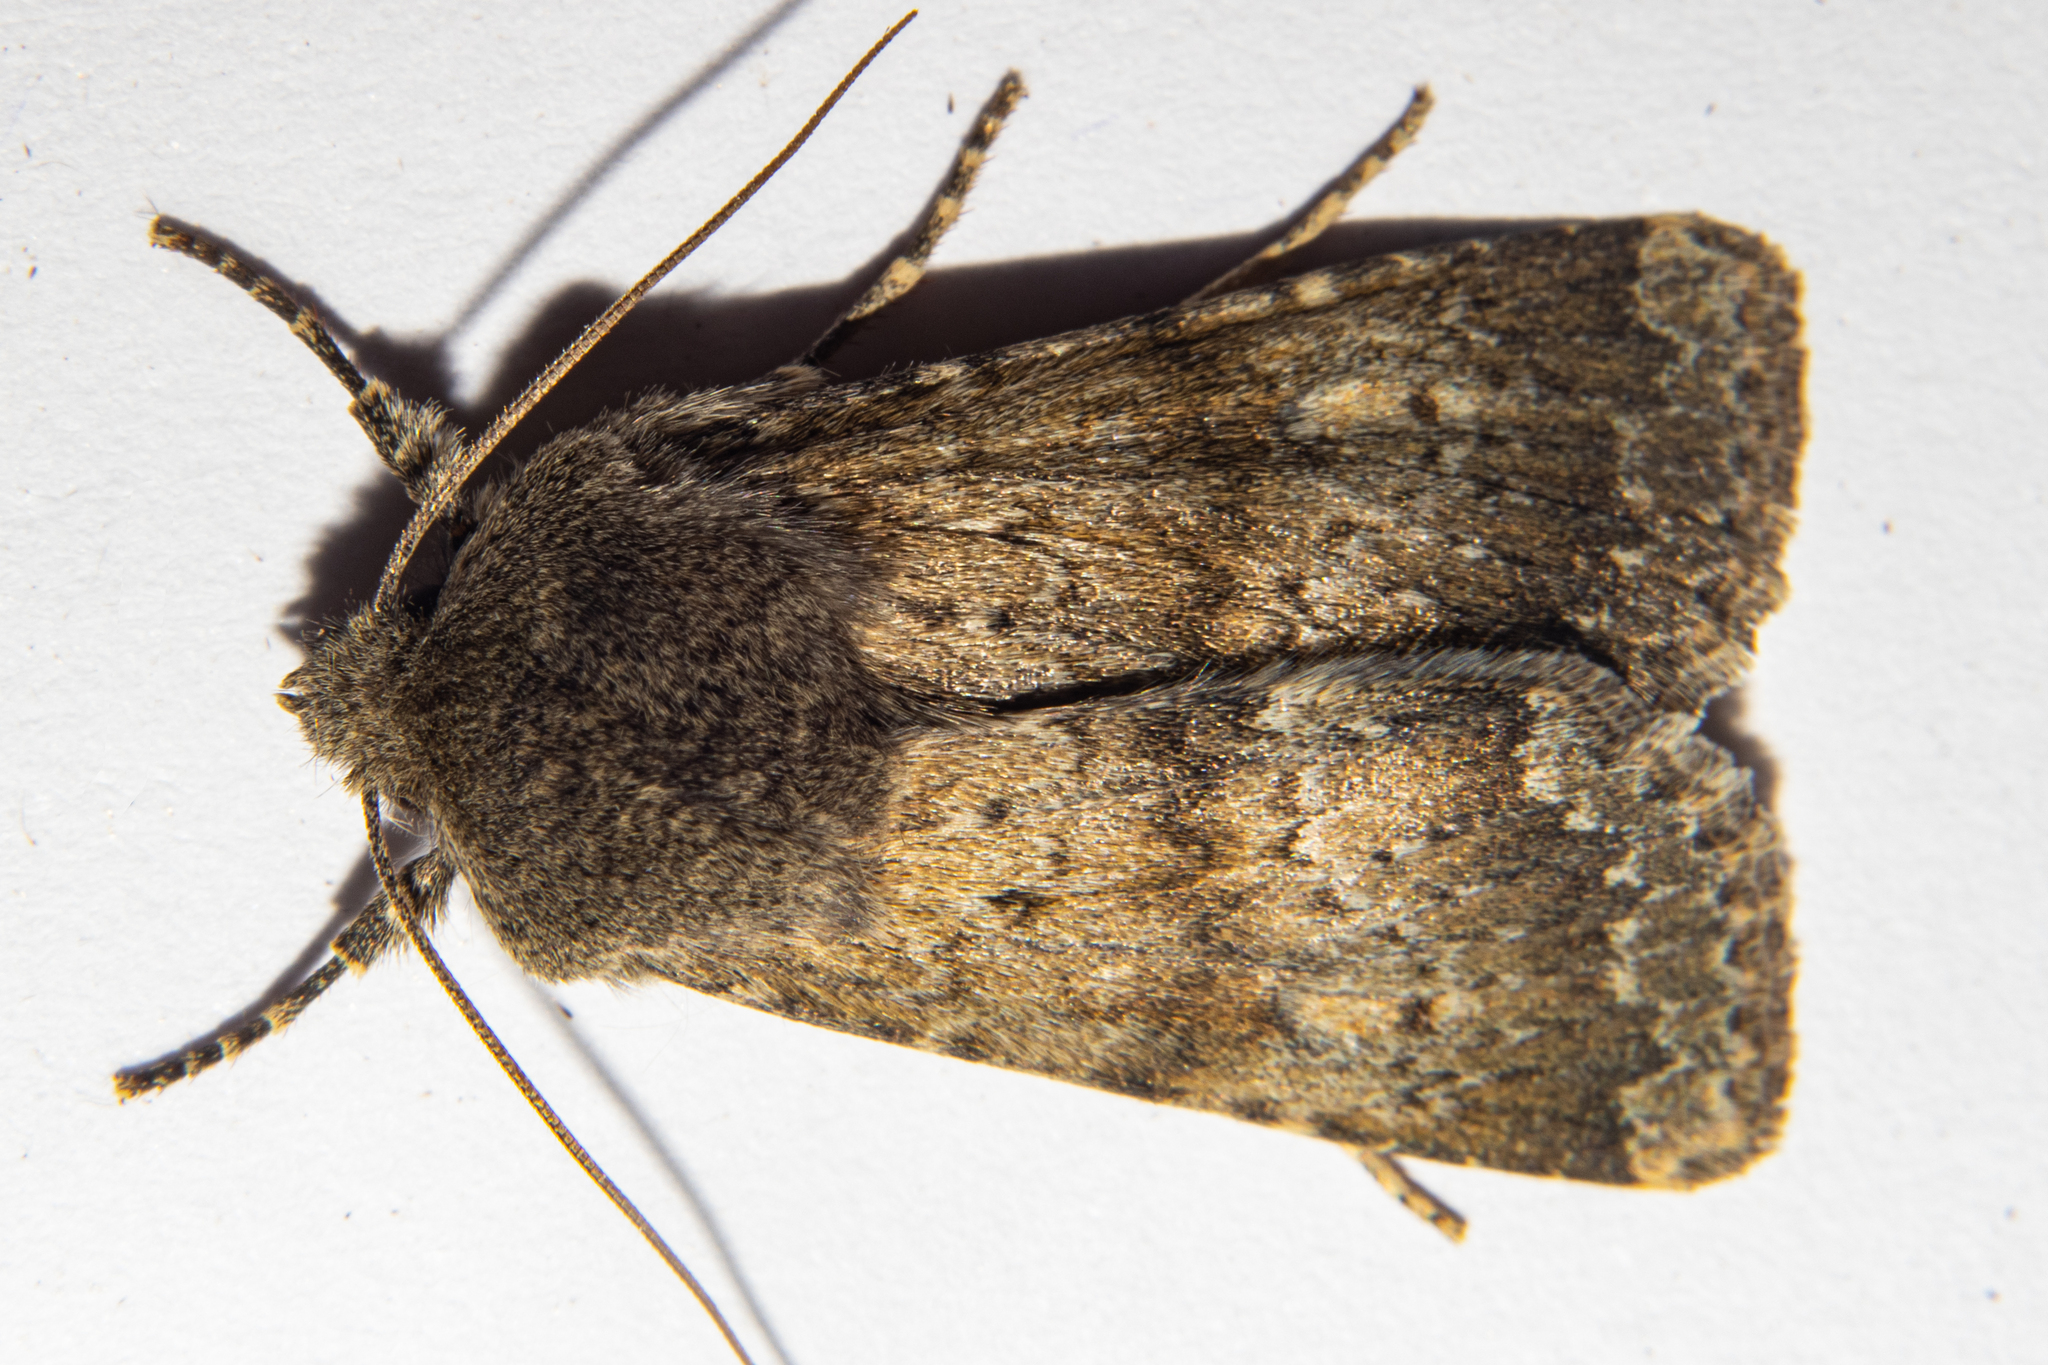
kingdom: Animalia
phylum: Arthropoda
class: Insecta
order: Lepidoptera
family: Noctuidae
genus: Ichneutica
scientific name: Ichneutica moderata
